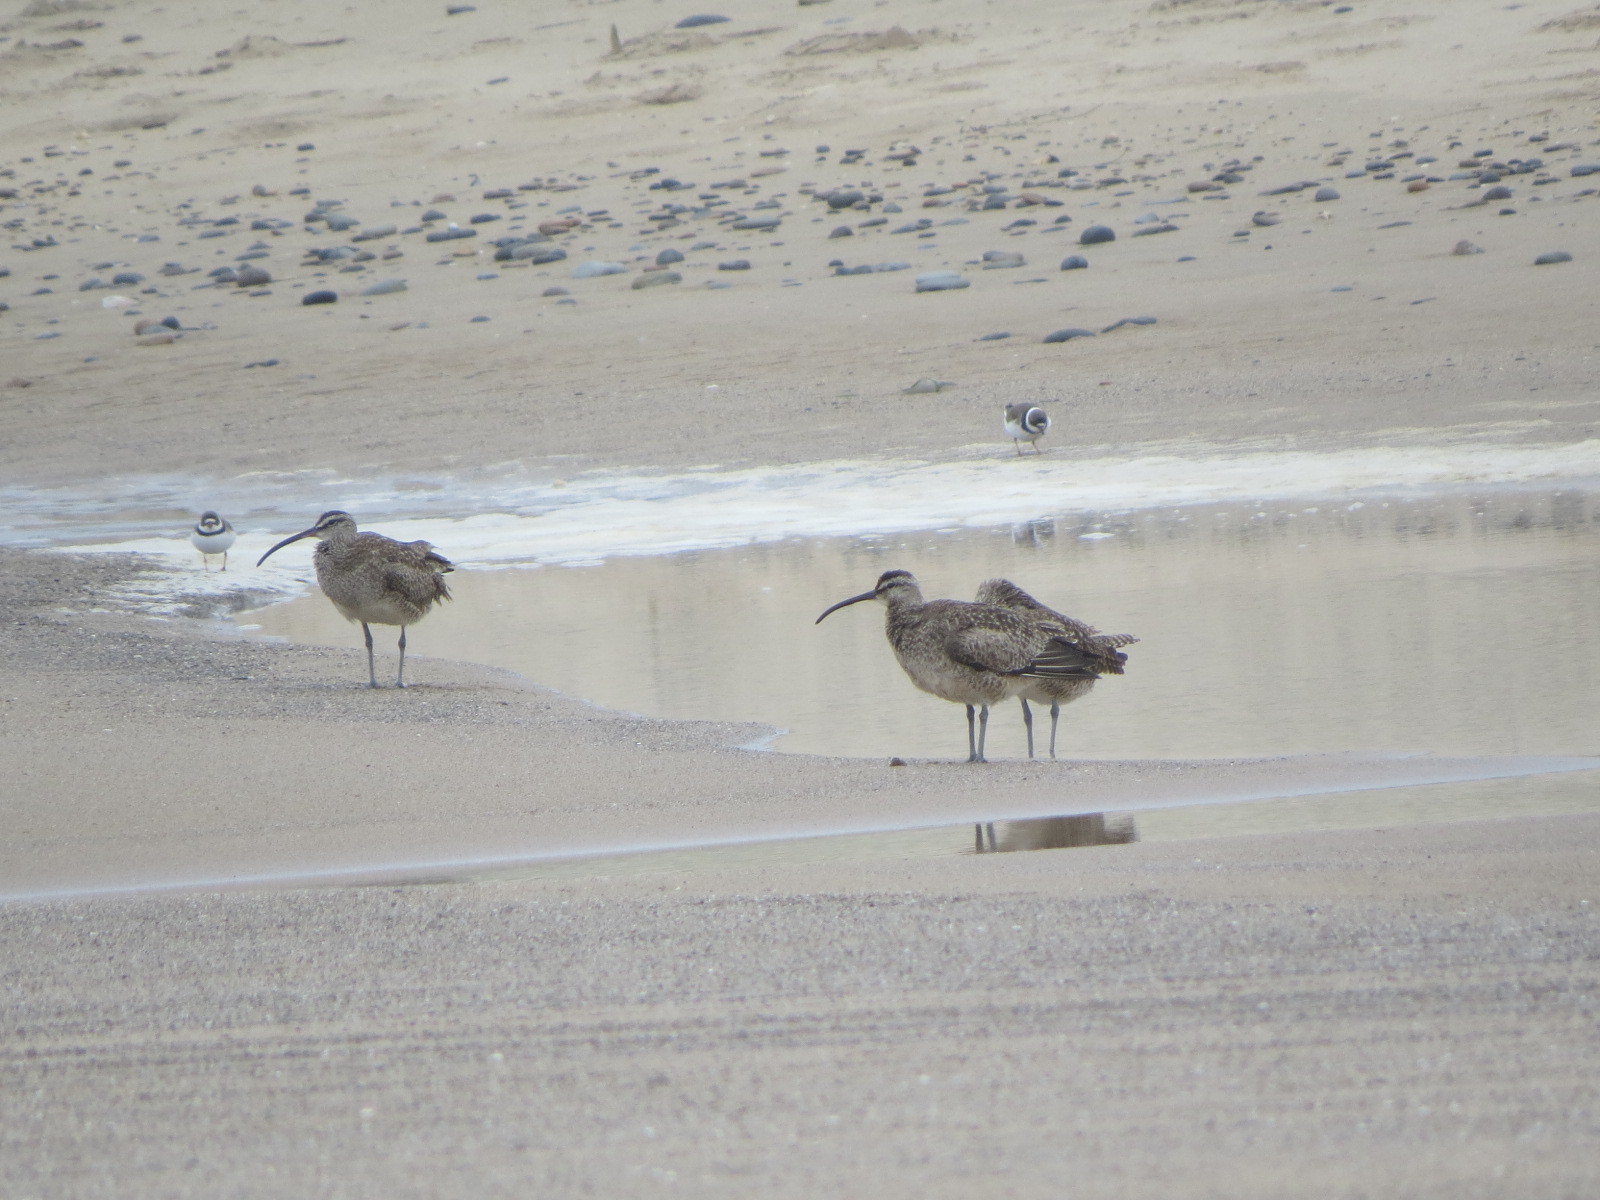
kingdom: Animalia
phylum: Chordata
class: Aves
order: Charadriiformes
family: Scolopacidae
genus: Numenius
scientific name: Numenius phaeopus
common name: Whimbrel
